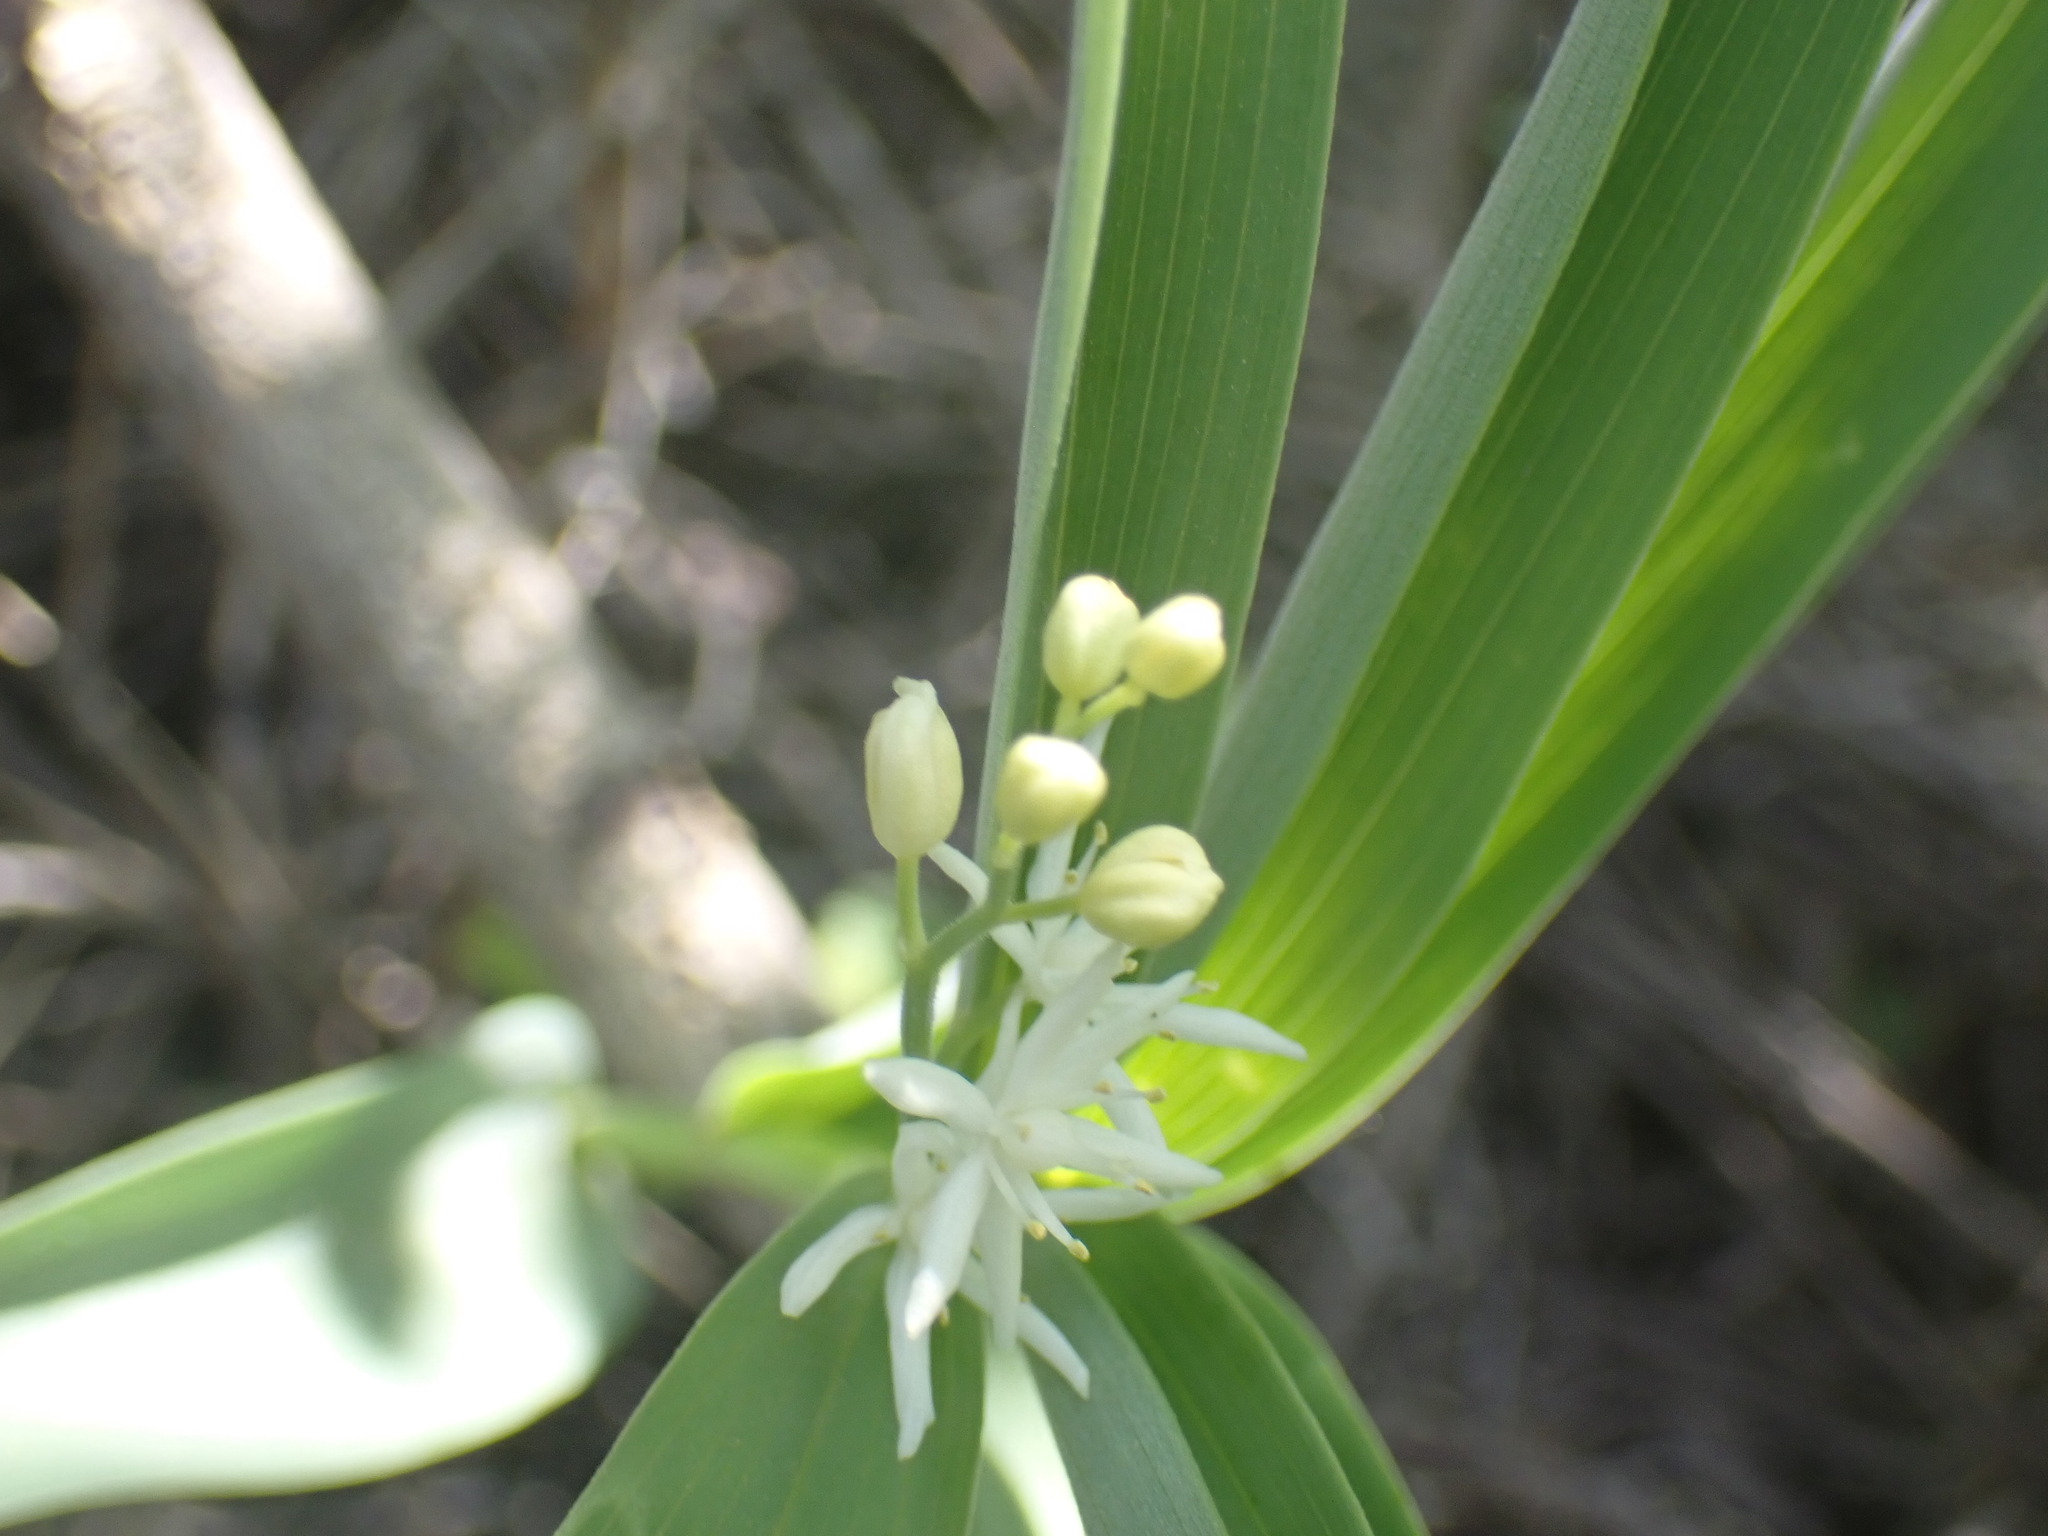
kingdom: Plantae
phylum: Tracheophyta
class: Liliopsida
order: Asparagales
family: Asparagaceae
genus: Maianthemum
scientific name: Maianthemum stellatum
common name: Little false solomon's seal
